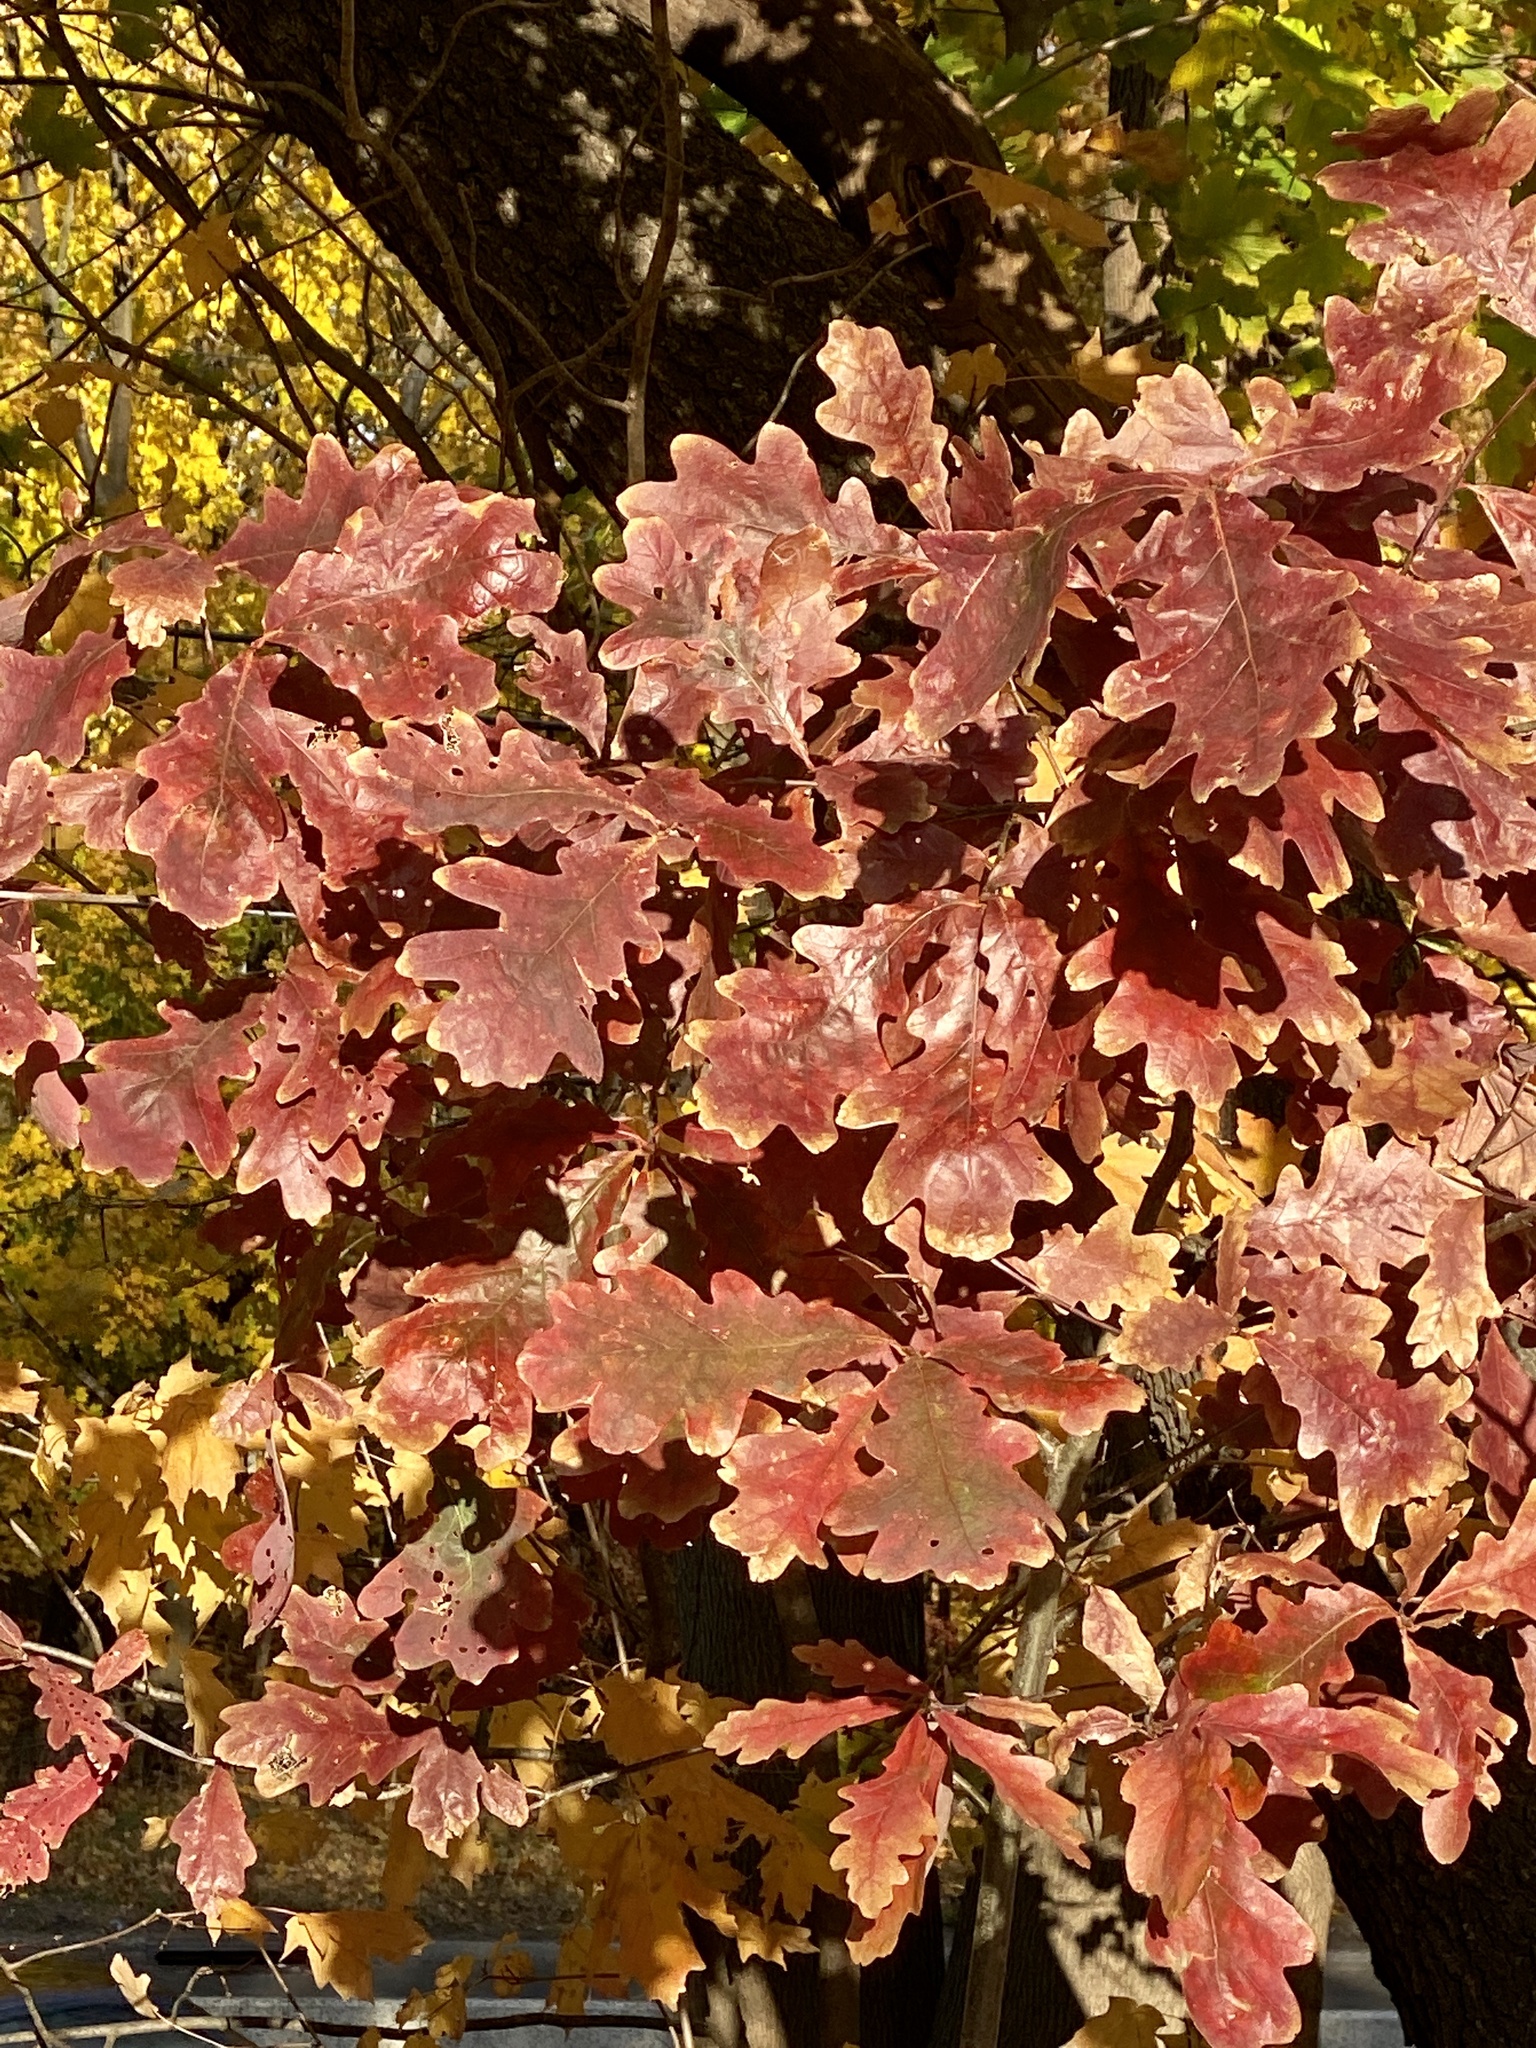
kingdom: Plantae
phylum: Tracheophyta
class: Magnoliopsida
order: Fagales
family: Fagaceae
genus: Quercus
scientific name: Quercus alba
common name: White oak
